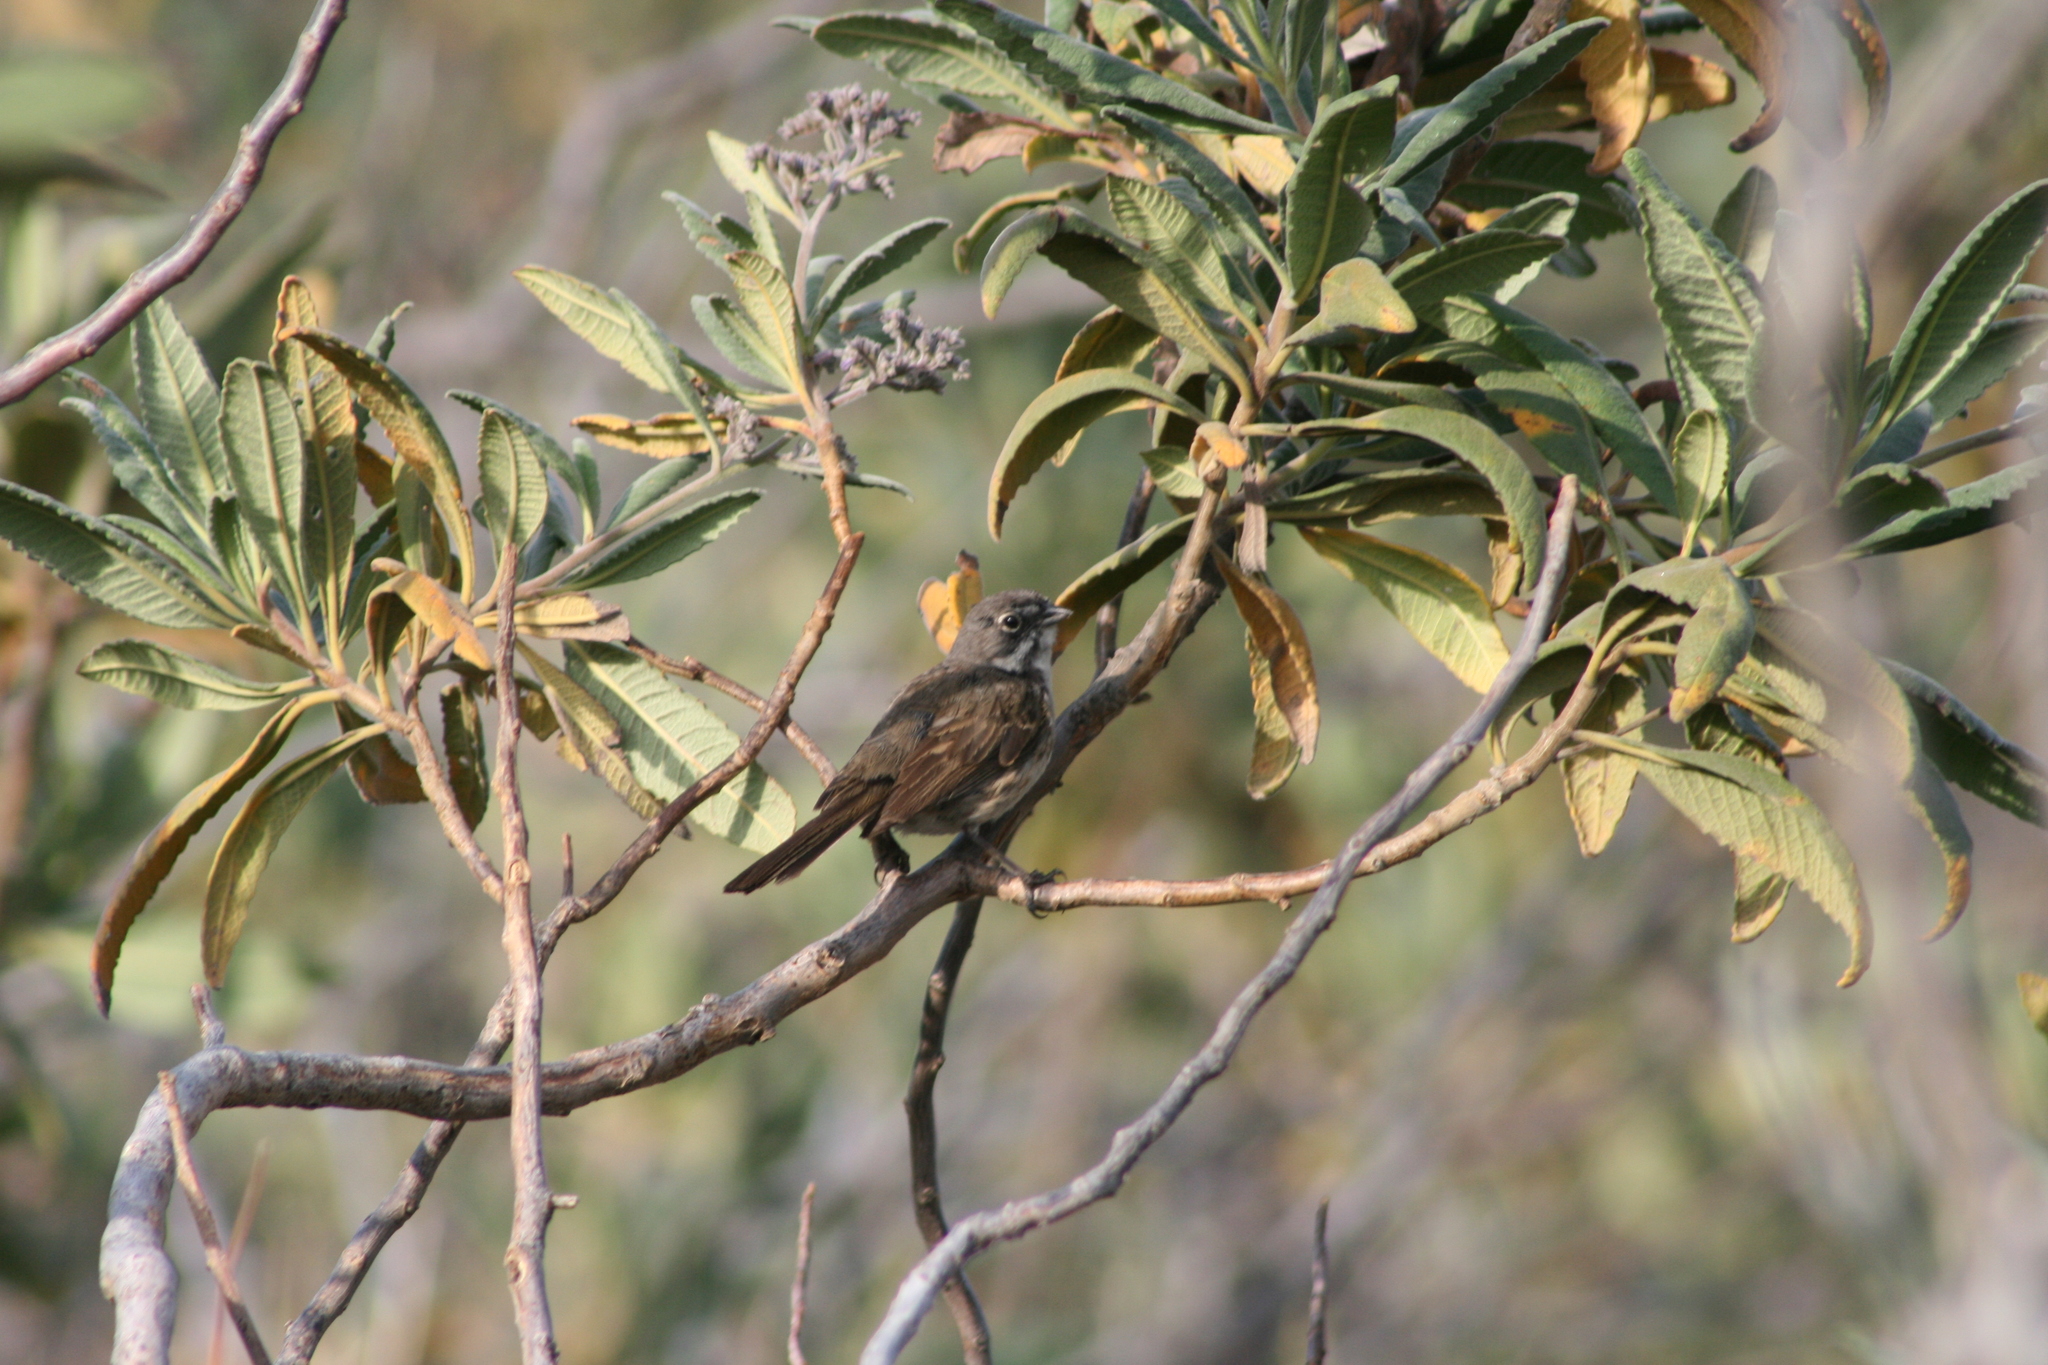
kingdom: Animalia
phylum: Chordata
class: Aves
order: Passeriformes
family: Passerellidae
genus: Artemisiospiza
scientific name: Artemisiospiza belli
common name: Bell's sparrow
